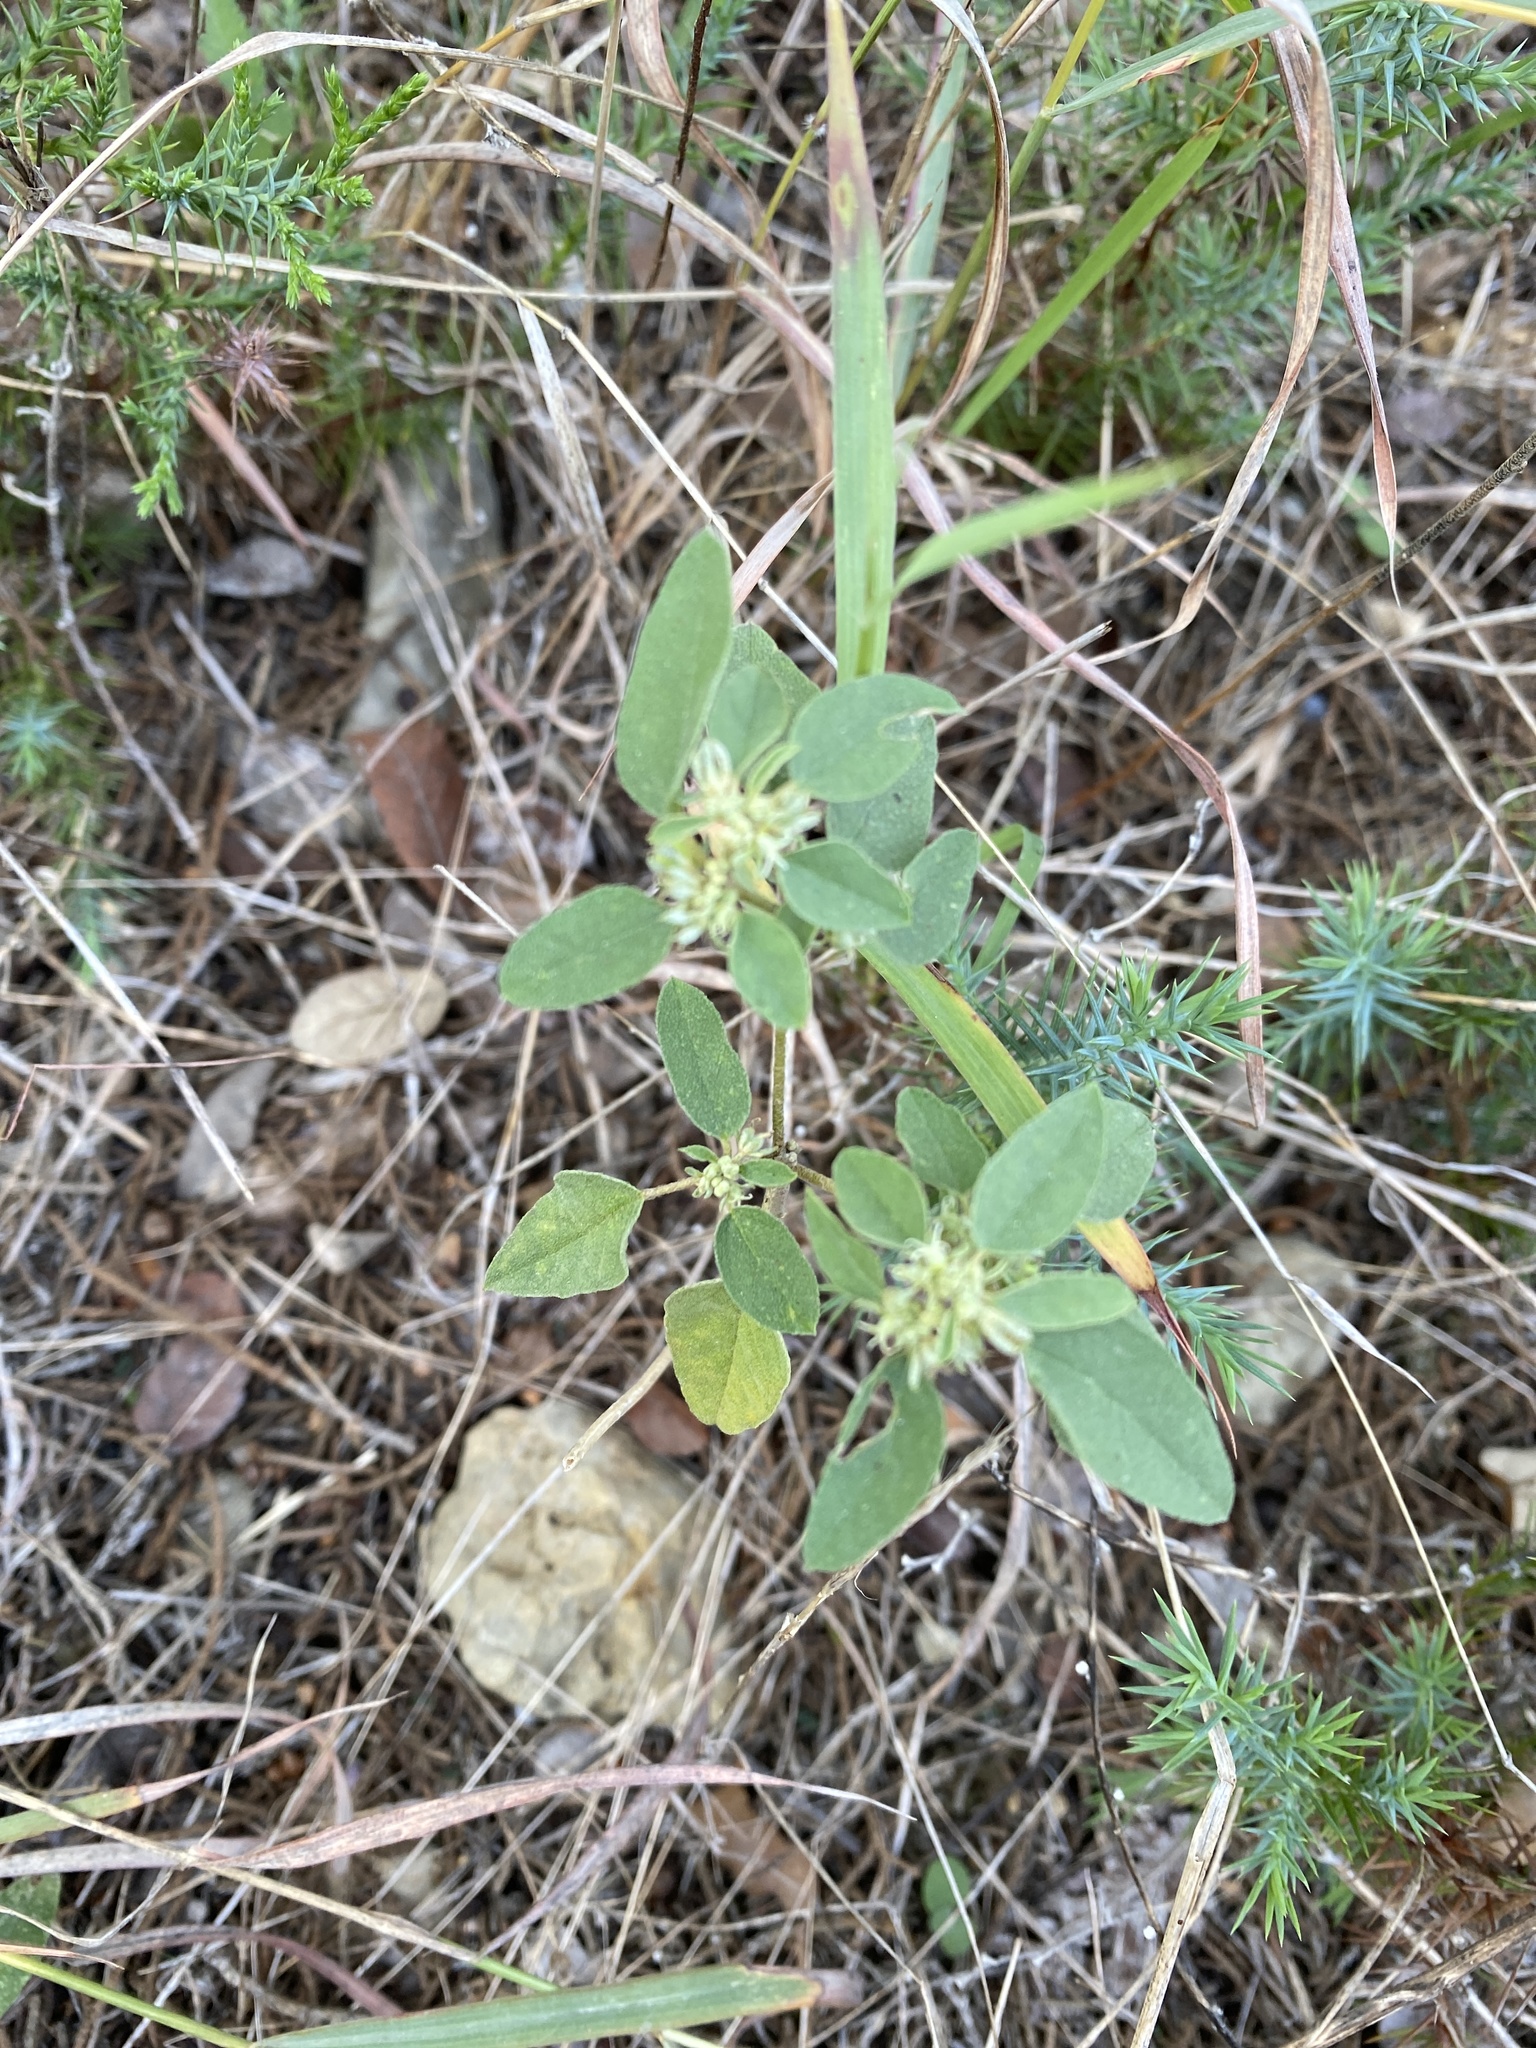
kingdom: Plantae
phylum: Tracheophyta
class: Magnoliopsida
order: Malpighiales
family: Euphorbiaceae
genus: Croton
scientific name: Croton monanthogynus
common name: One-seed croton
